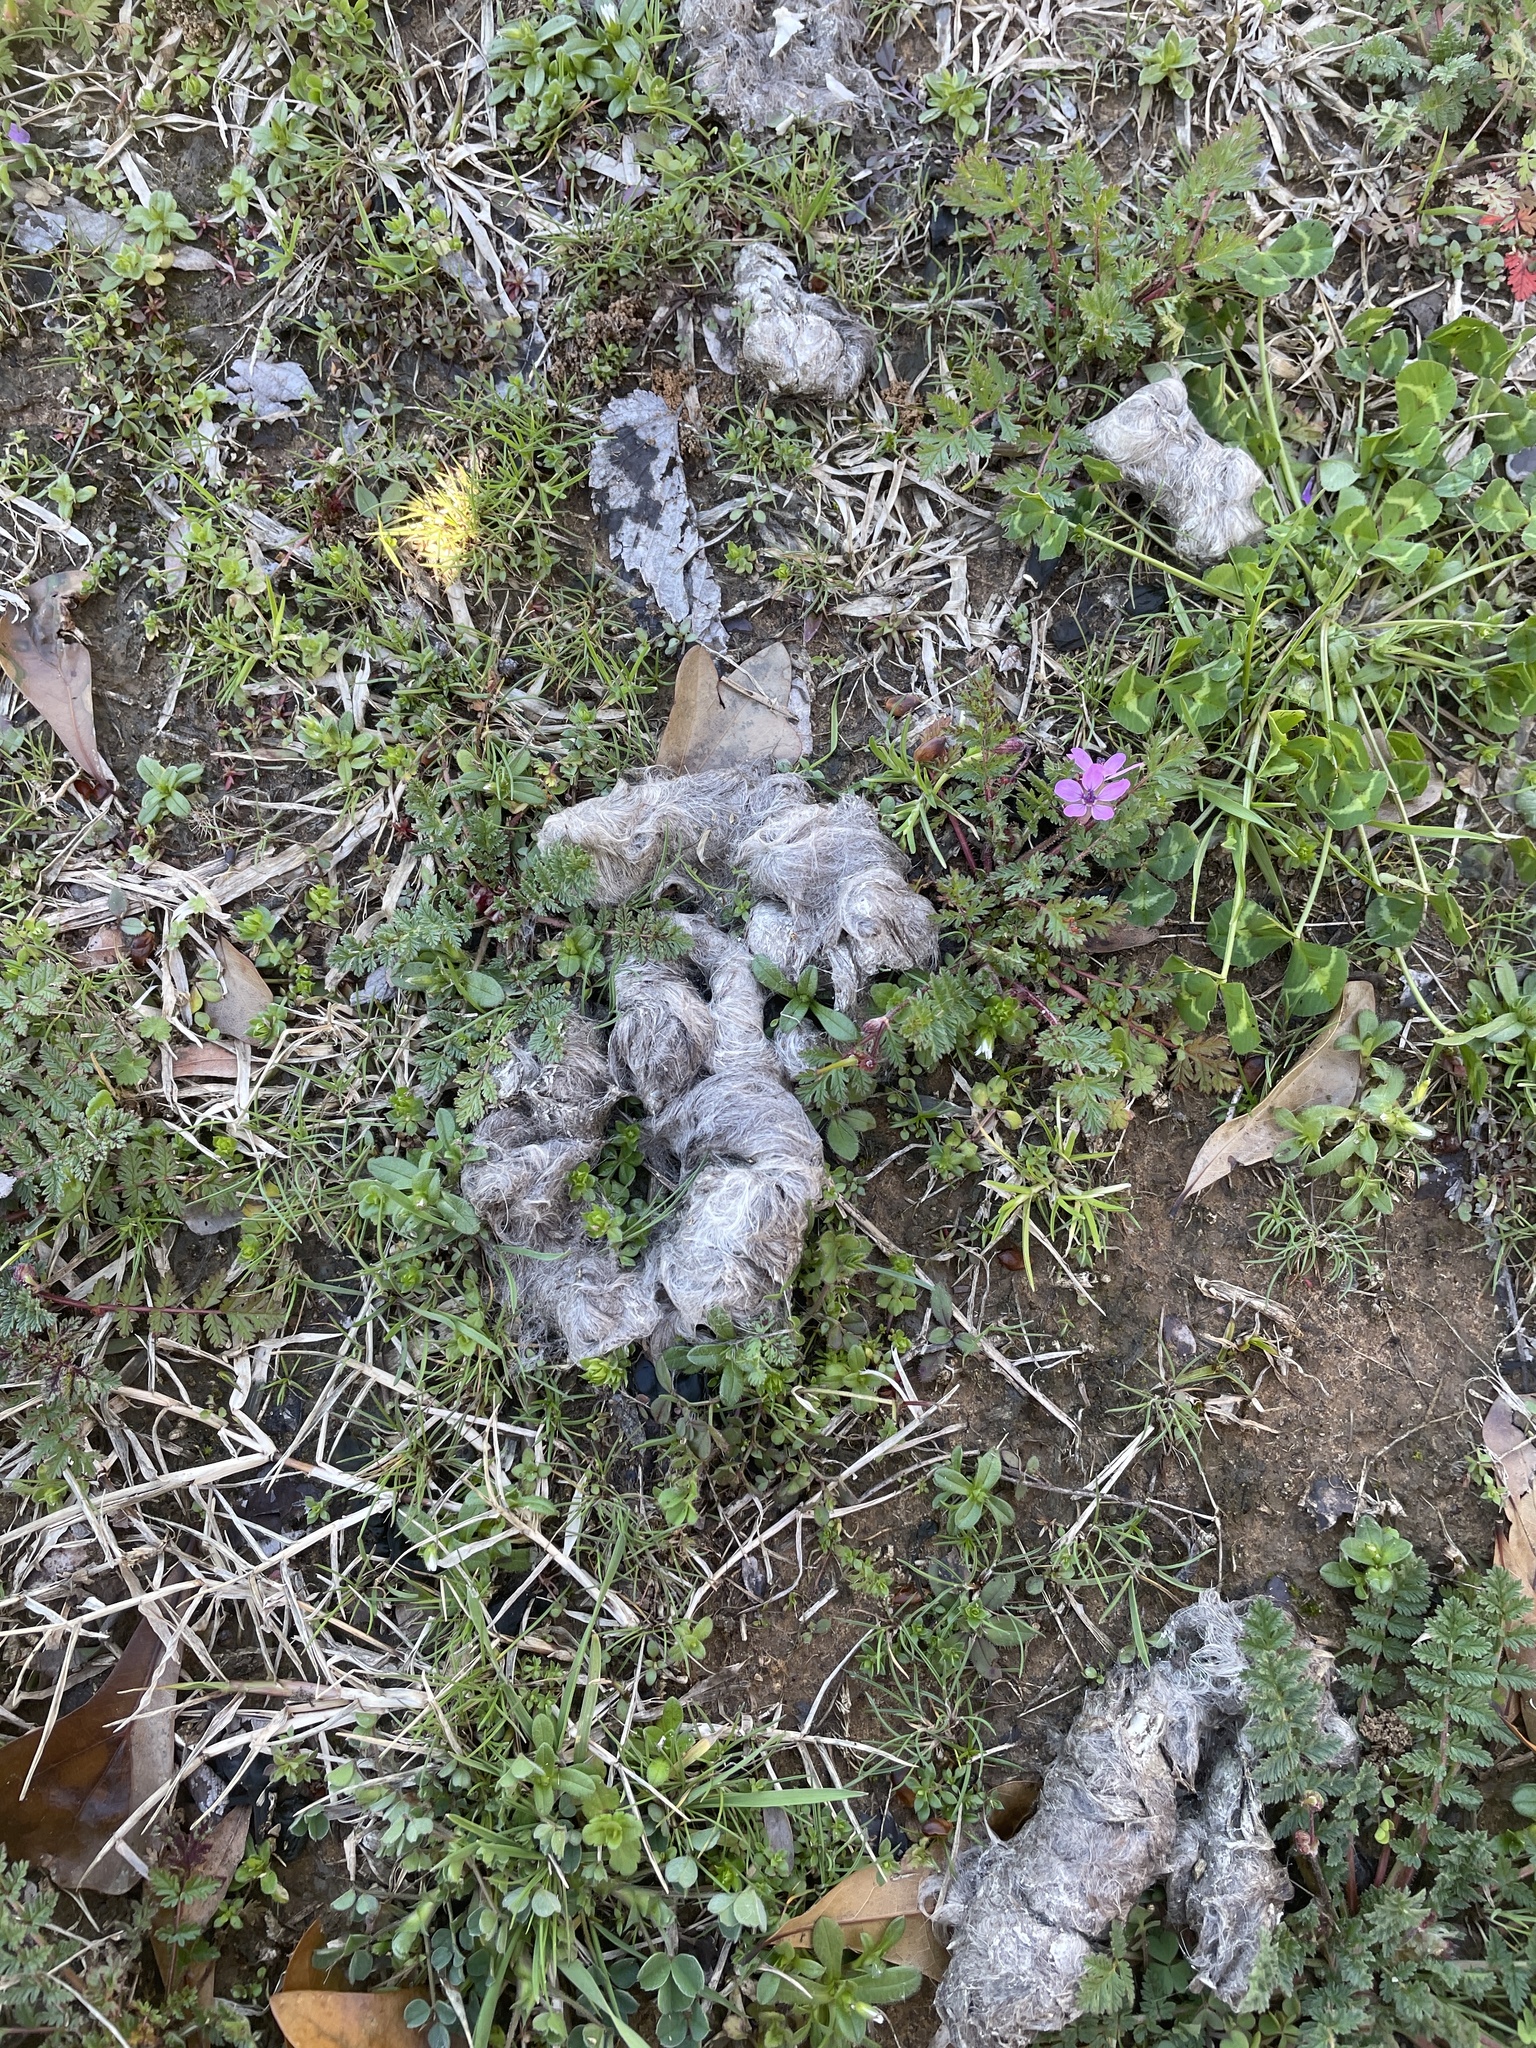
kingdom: Animalia
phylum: Chordata
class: Mammalia
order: Carnivora
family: Canidae
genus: Canis
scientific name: Canis latrans
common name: Coyote
